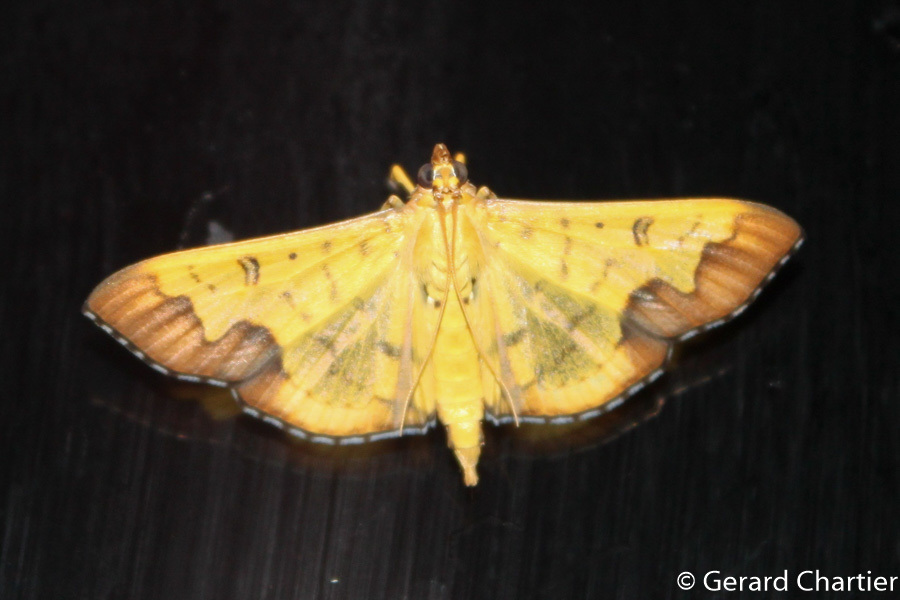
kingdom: Animalia
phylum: Arthropoda
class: Insecta
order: Lepidoptera
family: Crambidae
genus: Meroctena
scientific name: Meroctena tullalis
